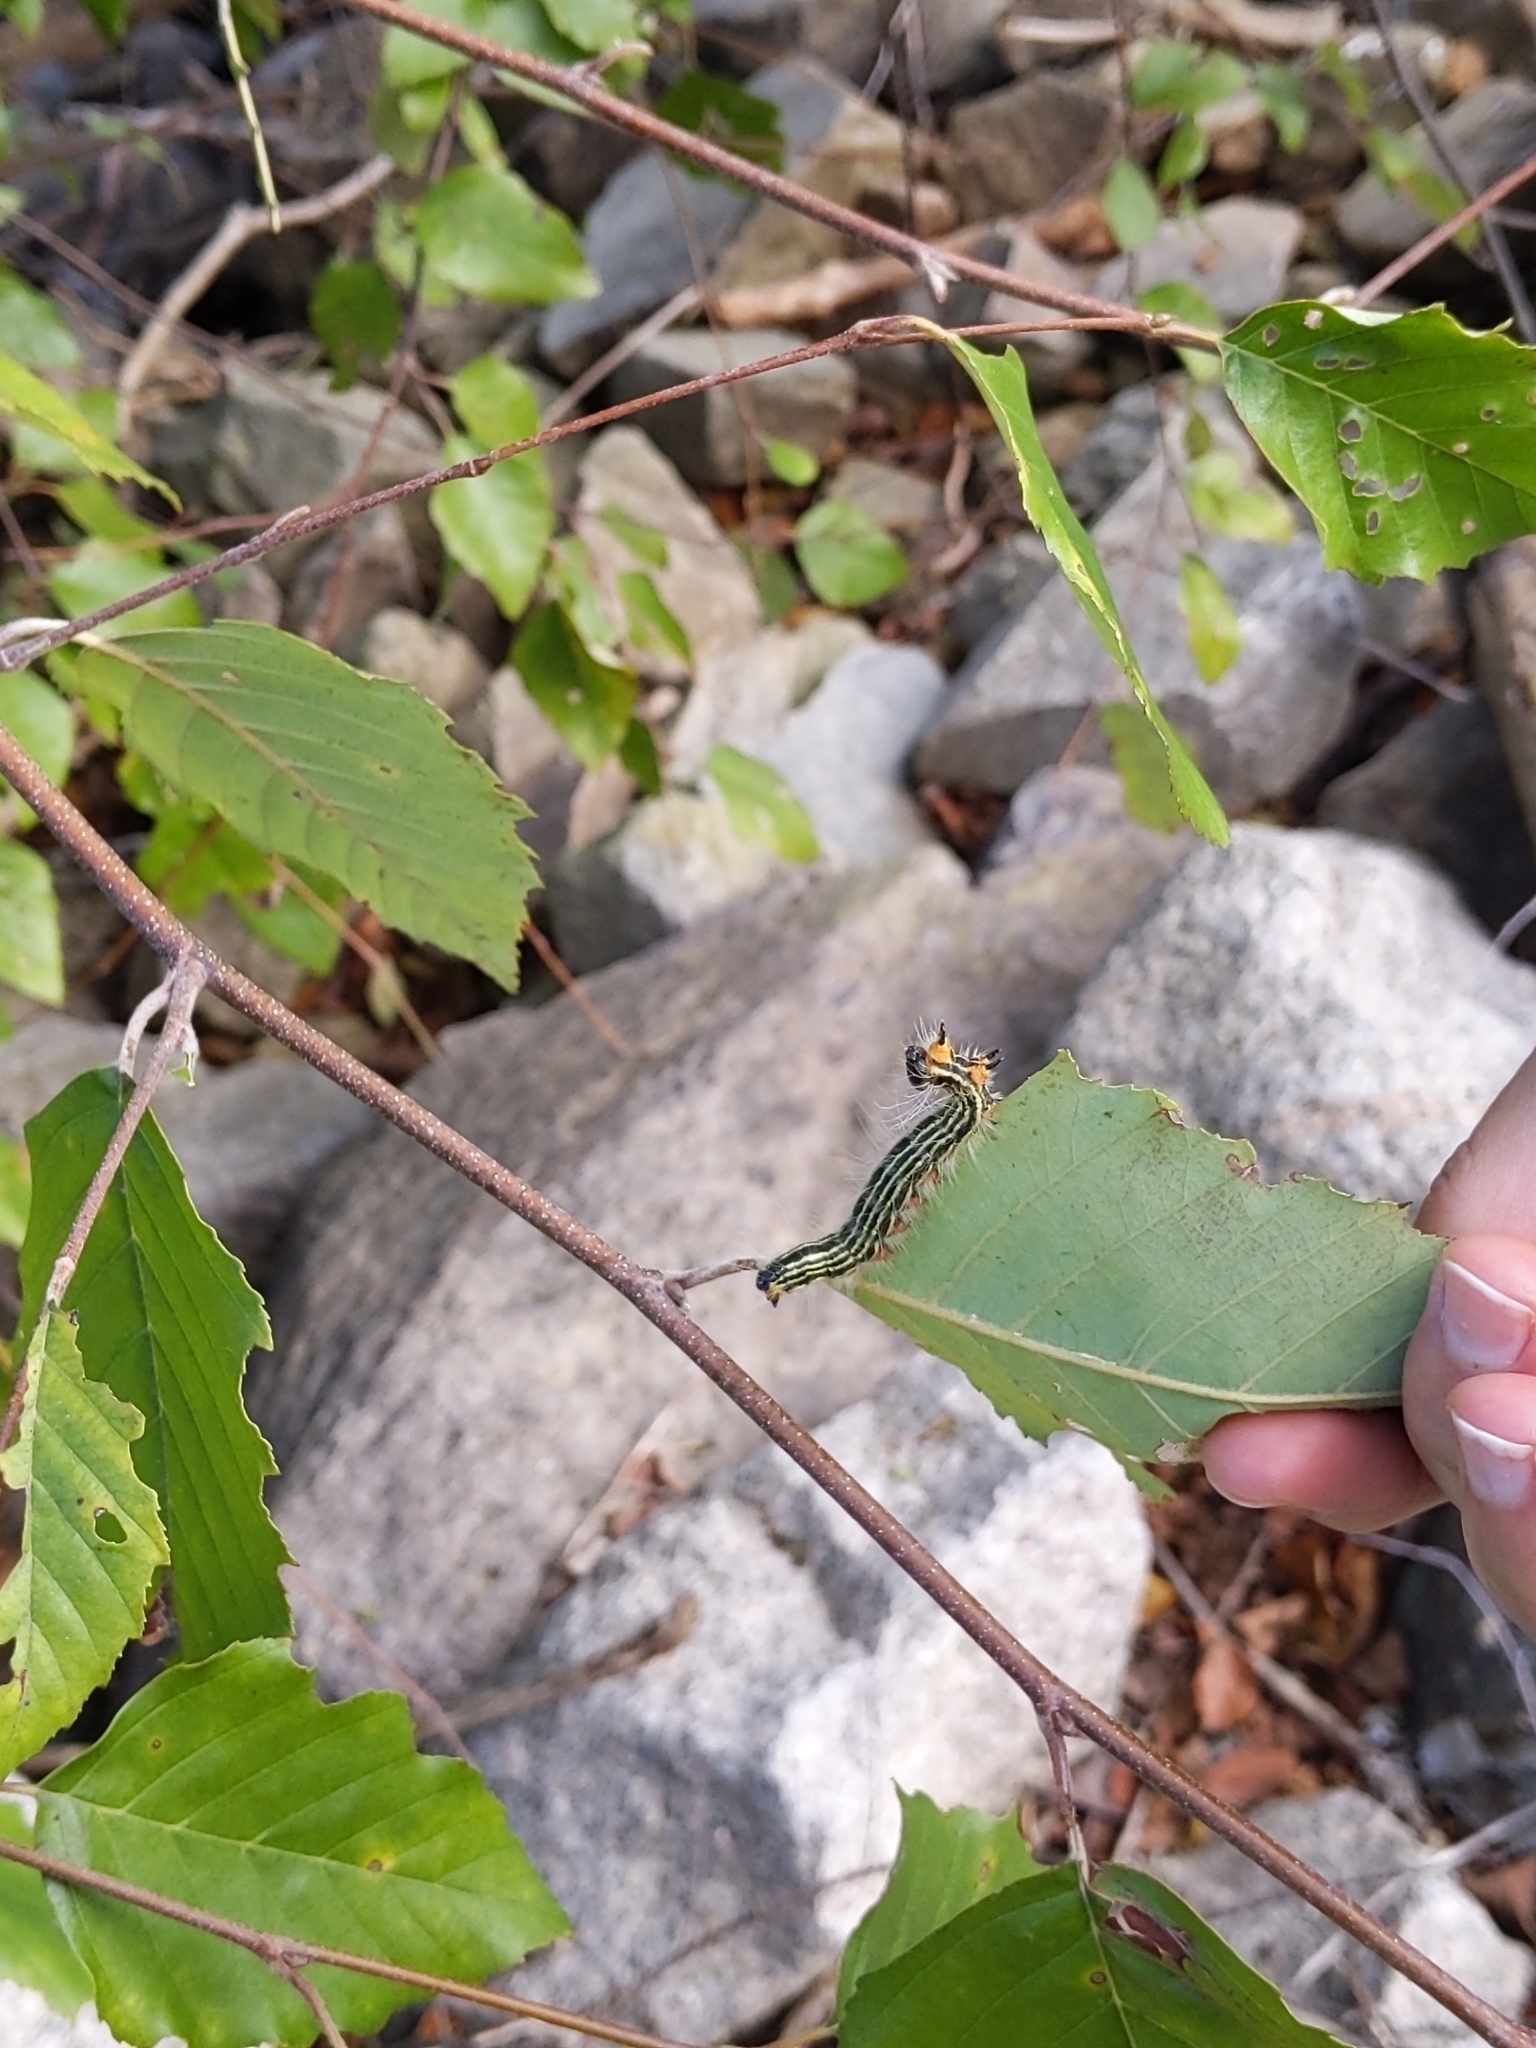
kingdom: Animalia
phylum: Arthropoda
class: Insecta
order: Lepidoptera
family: Notodontidae
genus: Datana
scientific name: Datana ministra
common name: Yellow-necked caterpillar moth
